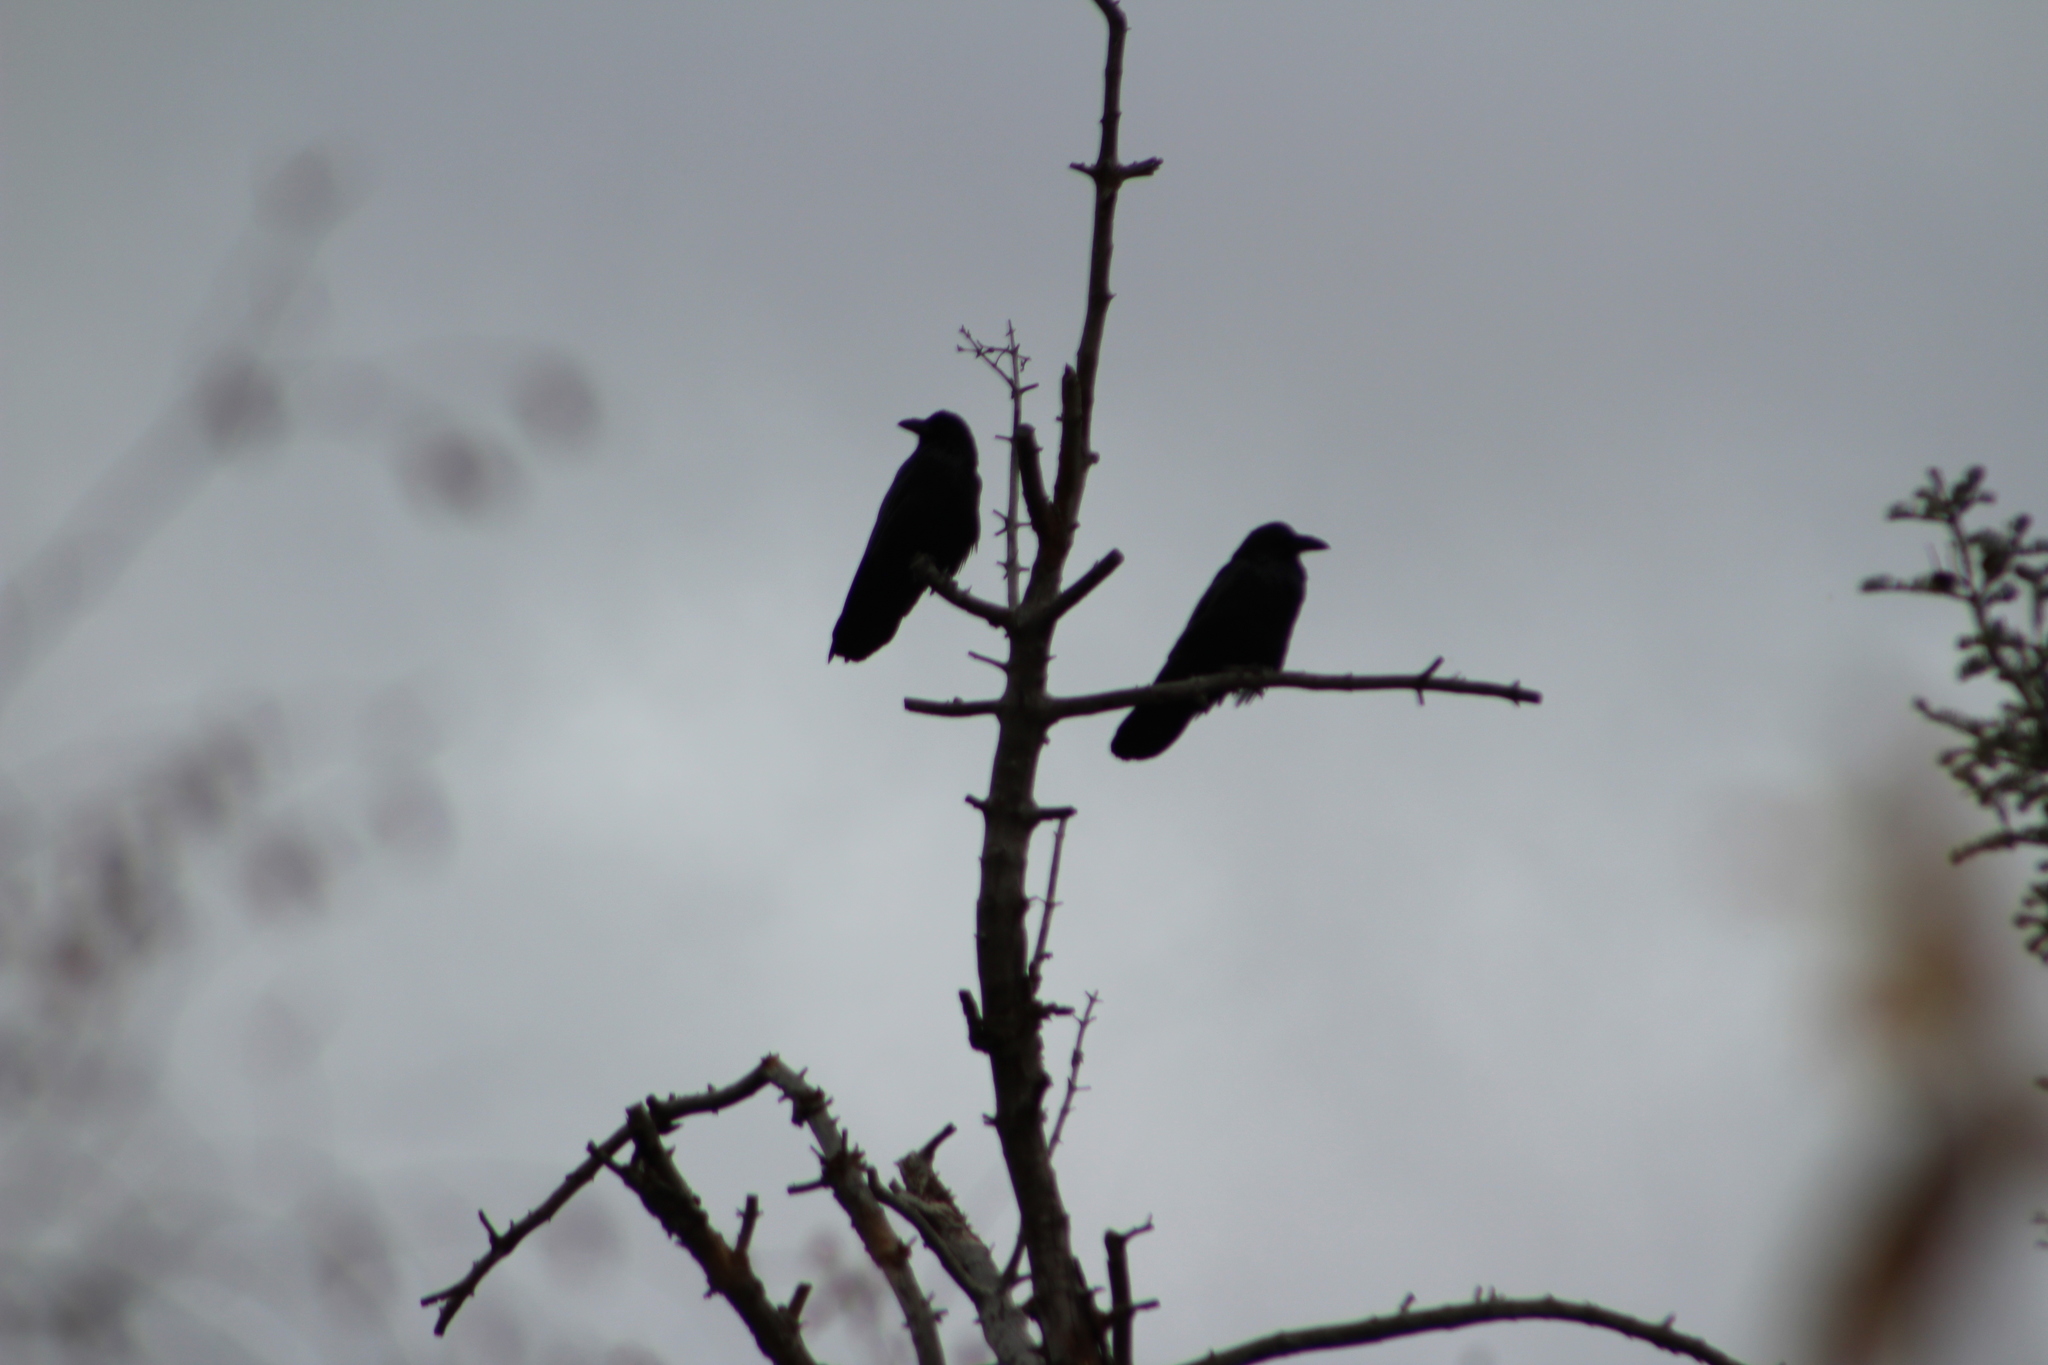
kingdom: Animalia
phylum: Chordata
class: Aves
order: Passeriformes
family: Corvidae
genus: Corvus
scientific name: Corvus corax
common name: Common raven
